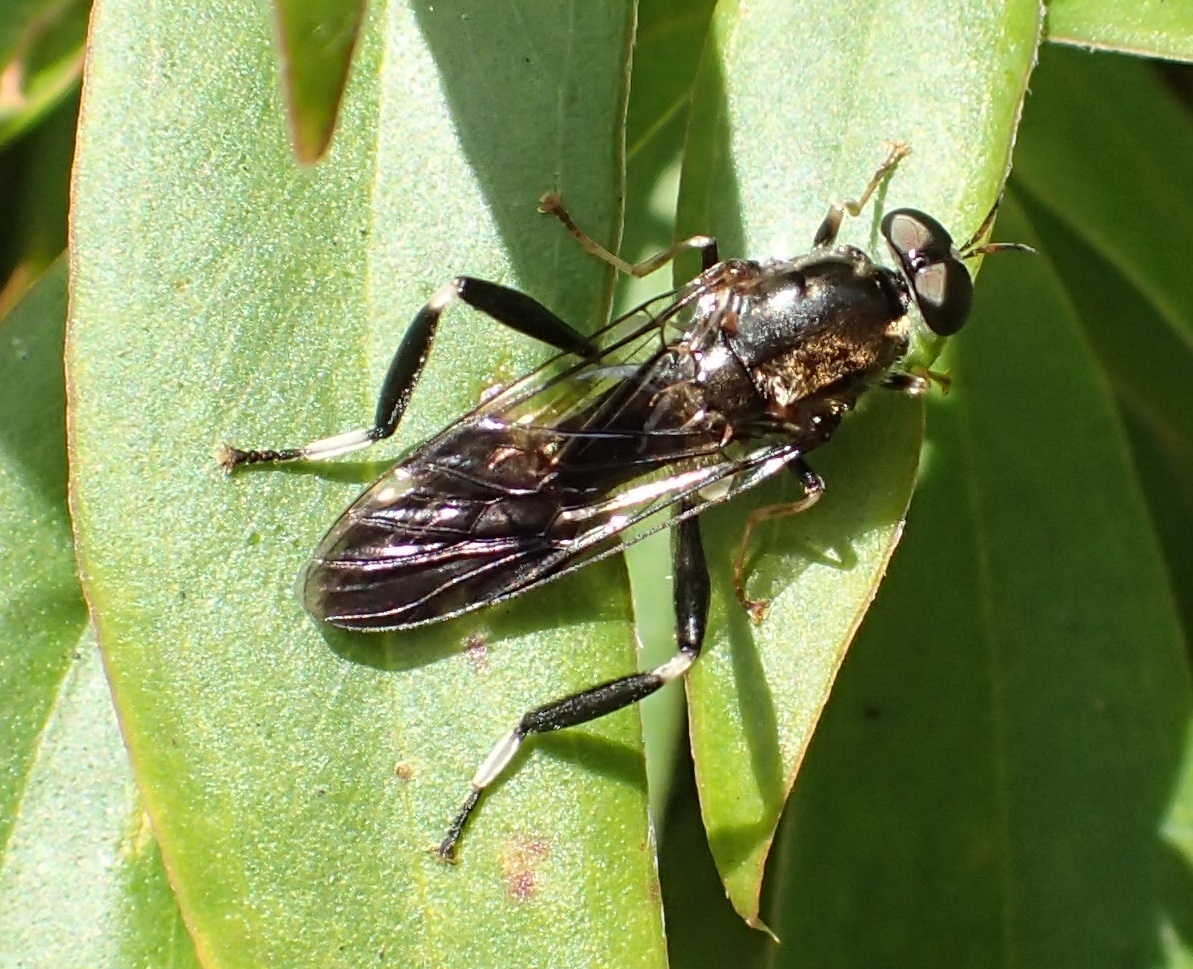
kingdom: Animalia
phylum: Arthropoda
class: Insecta
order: Diptera
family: Stratiomyidae
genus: Exaireta
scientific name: Exaireta spinigera
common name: Blue soldier fly
